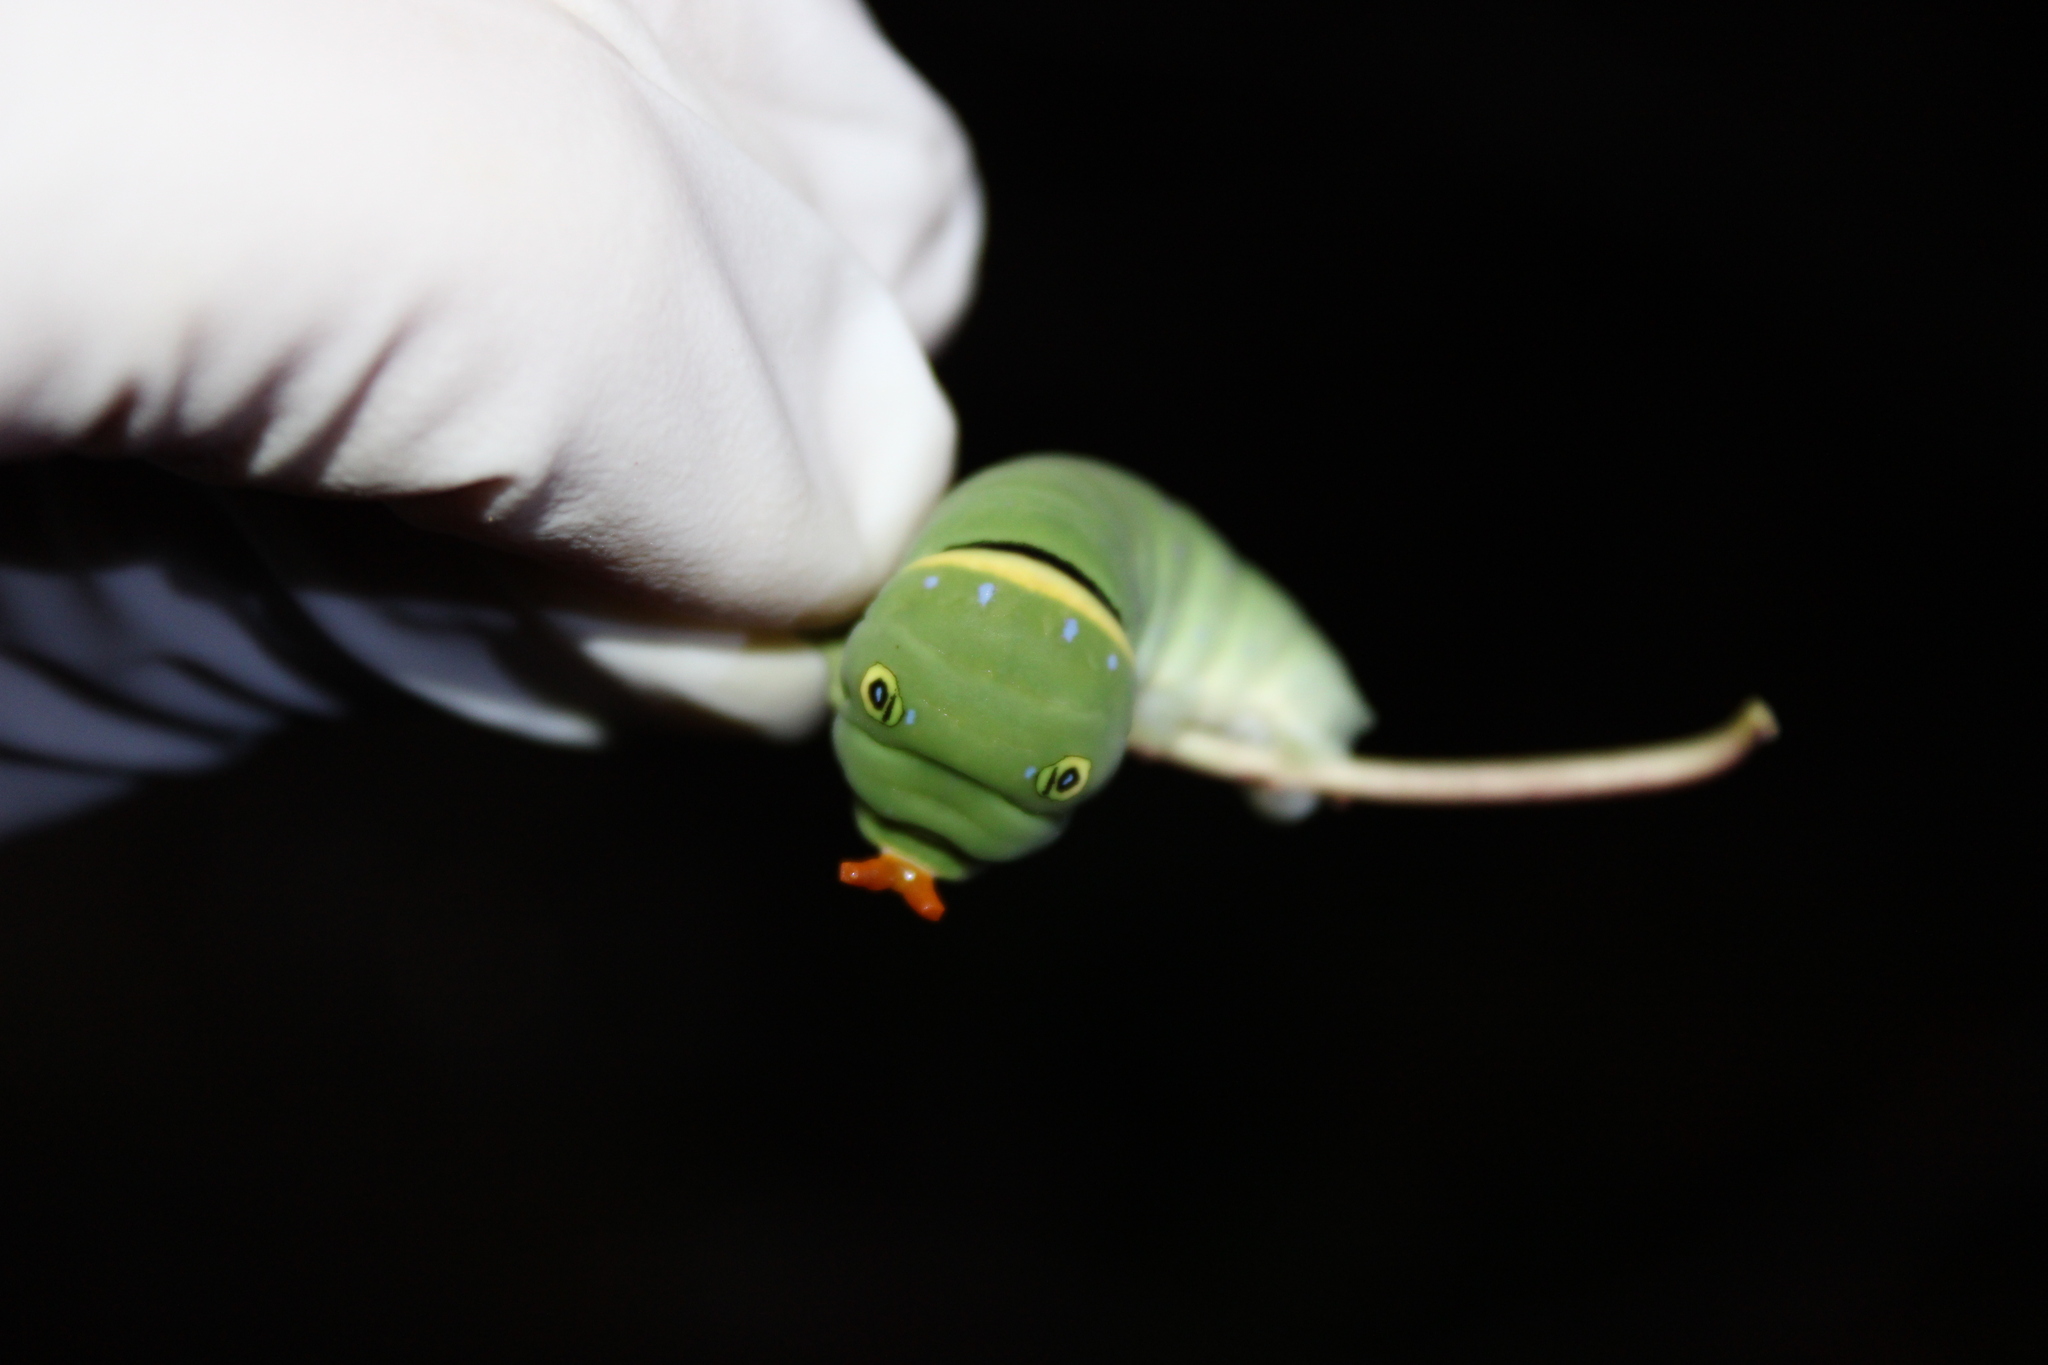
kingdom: Animalia
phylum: Arthropoda
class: Insecta
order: Lepidoptera
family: Papilionidae
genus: Papilio
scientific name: Papilio glaucus
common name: Tiger swallowtail
